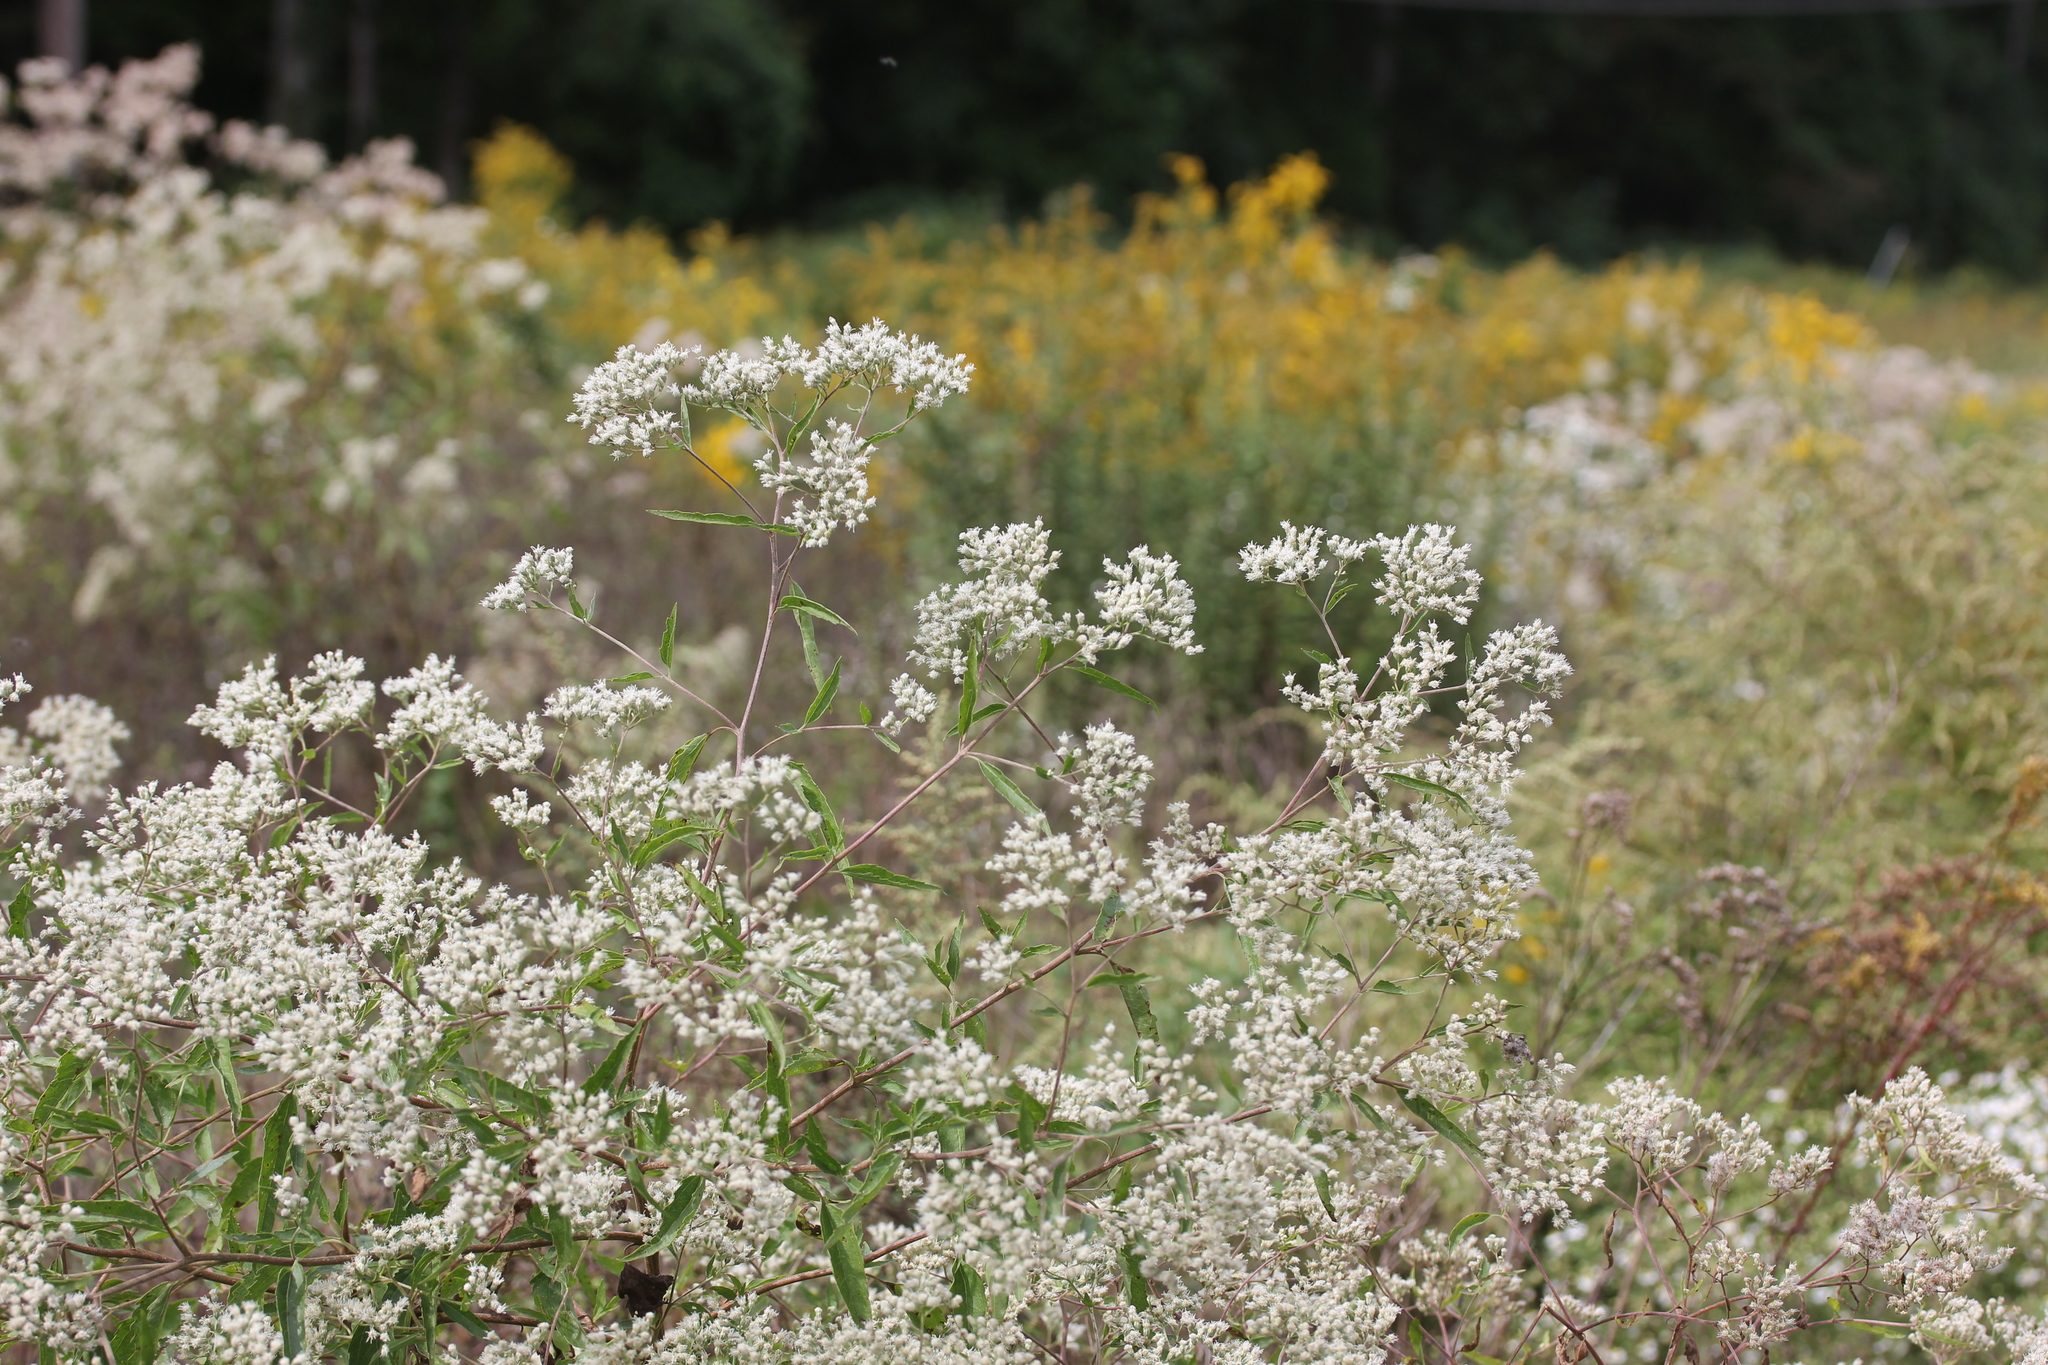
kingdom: Plantae
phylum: Tracheophyta
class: Magnoliopsida
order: Asterales
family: Asteraceae
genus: Eupatorium
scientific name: Eupatorium serotinum
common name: Late boneset
